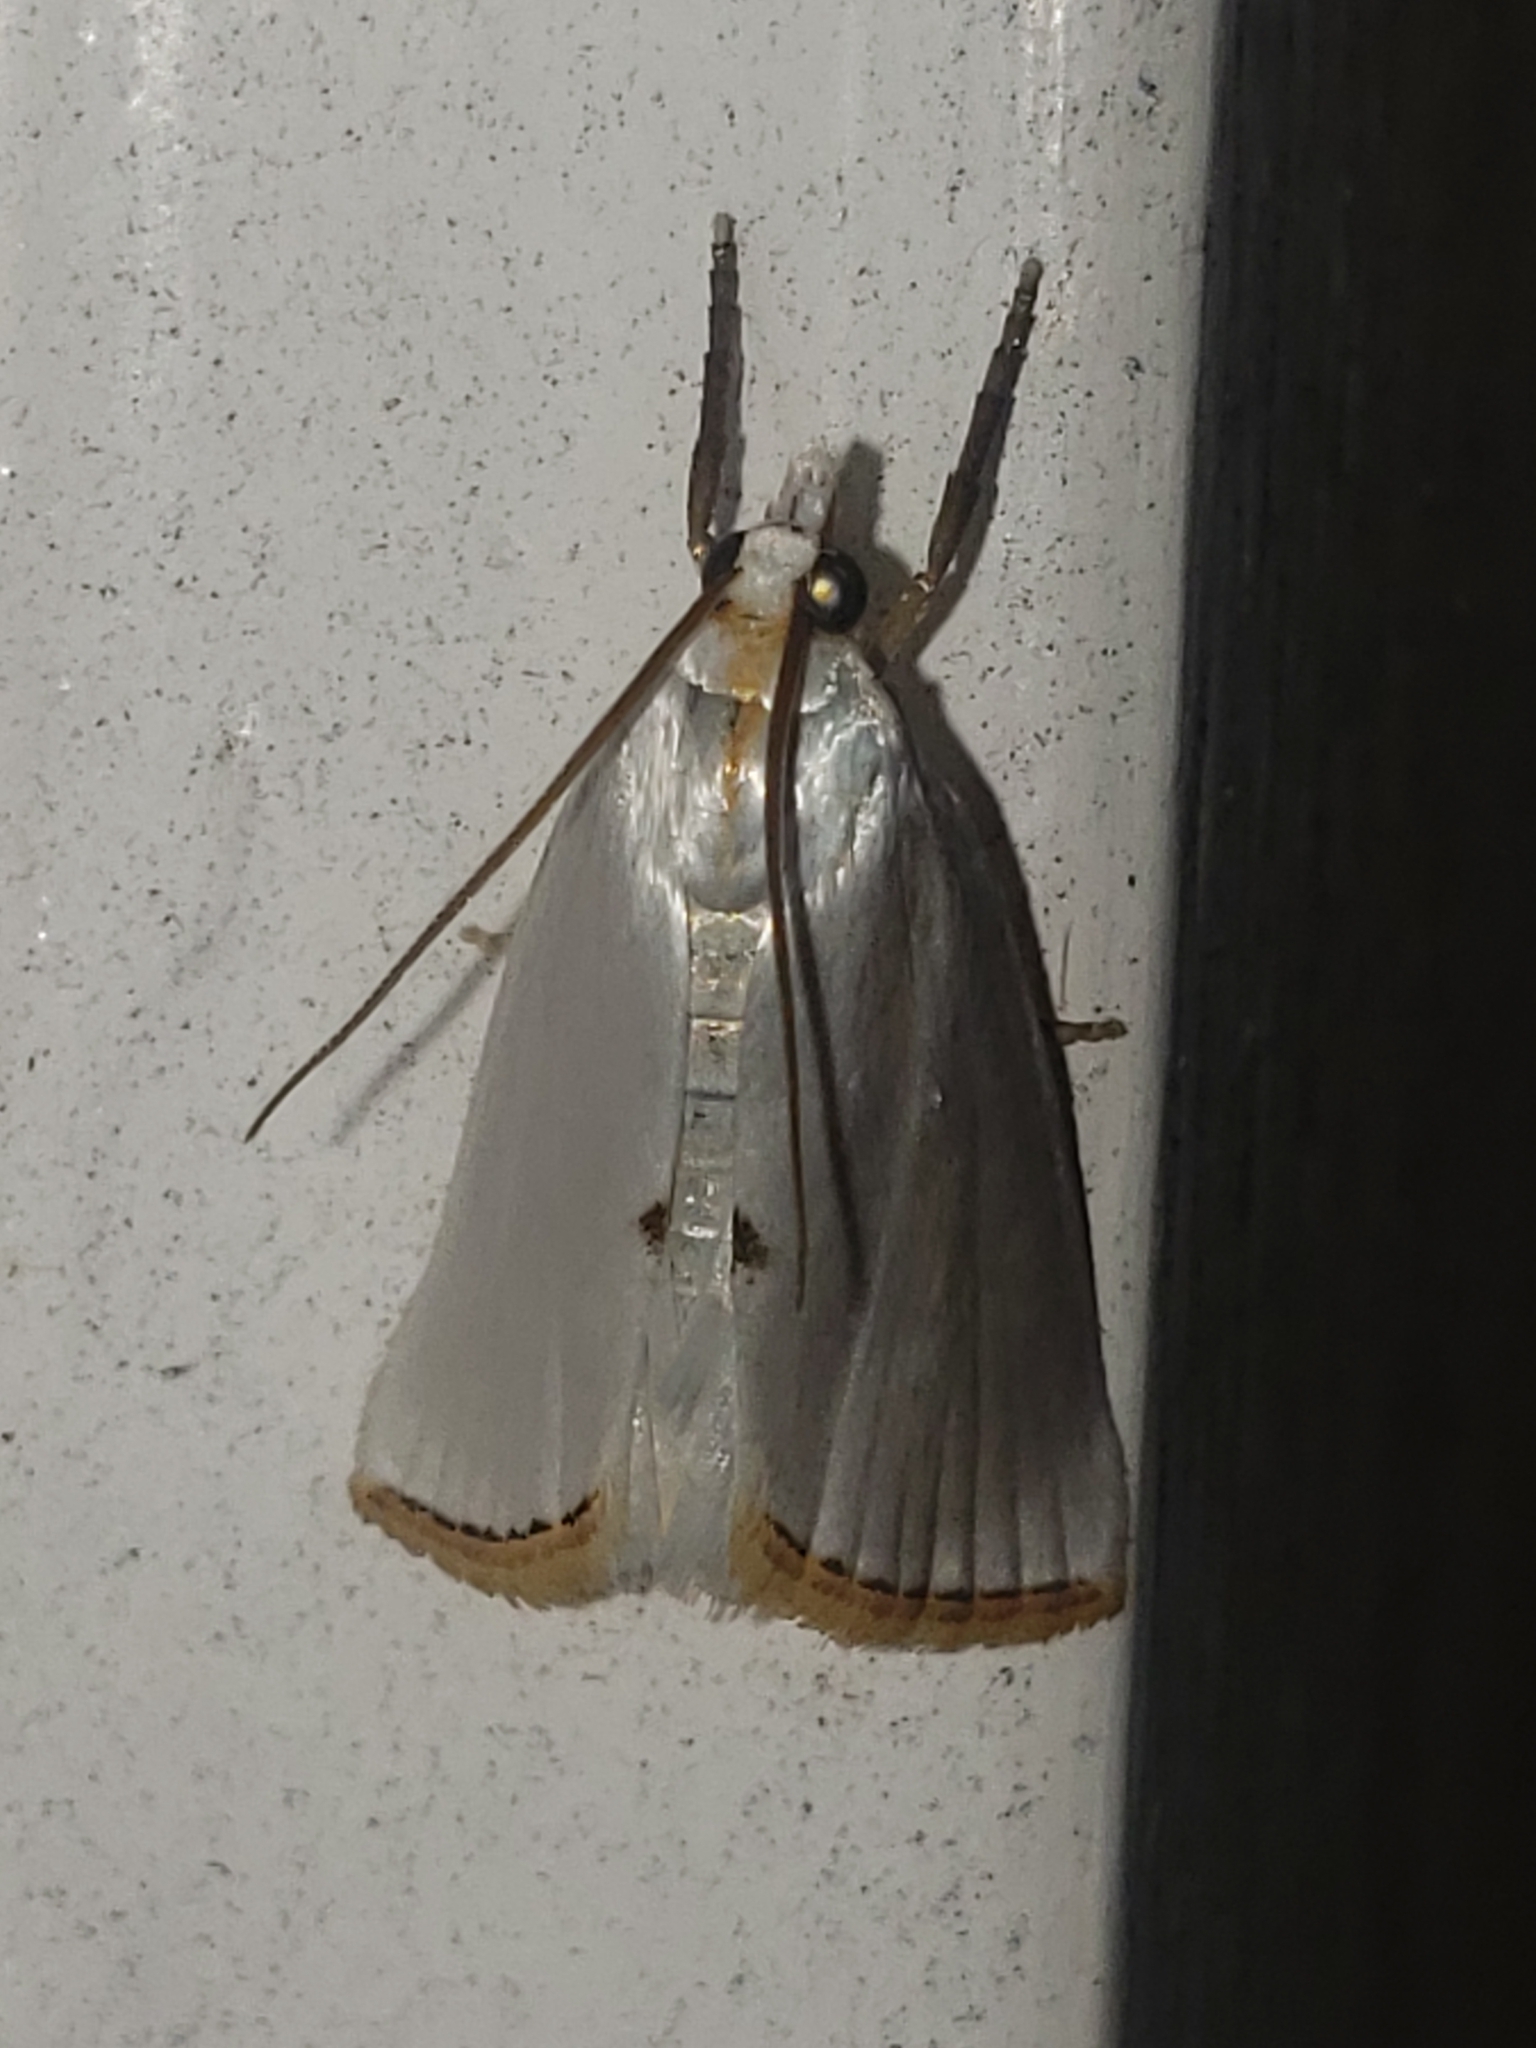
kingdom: Animalia
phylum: Arthropoda
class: Insecta
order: Lepidoptera
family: Crambidae
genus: Argyria
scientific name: Argyria nivalis
